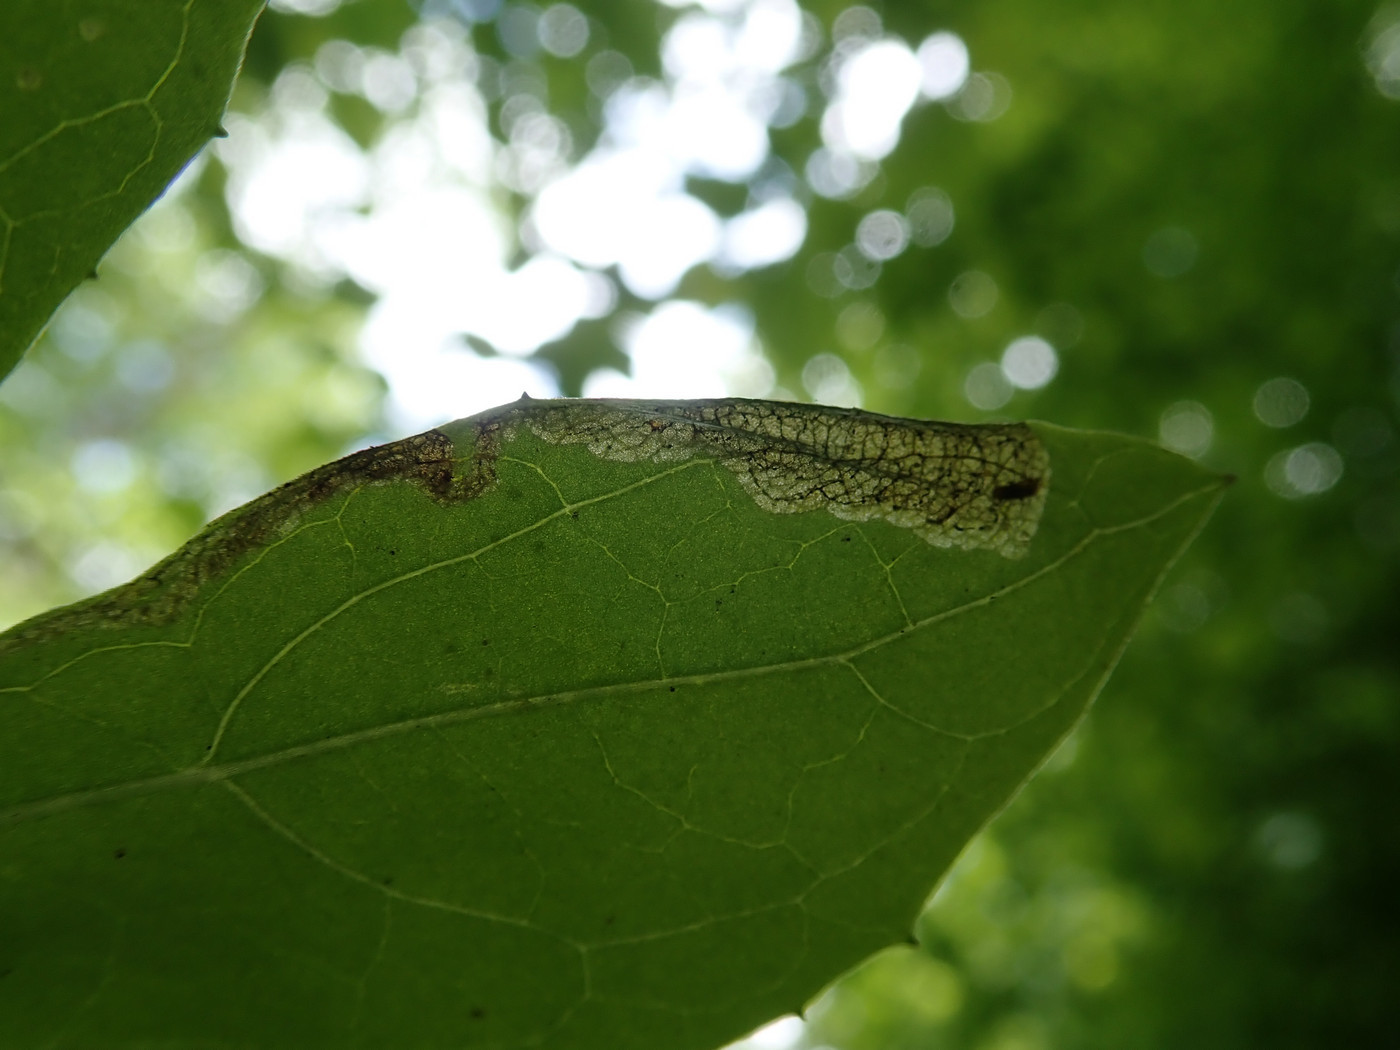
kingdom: Animalia
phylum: Arthropoda
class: Insecta
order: Diptera
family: Agromyzidae
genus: Liriomyza
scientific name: Liriomyza orilliensis
